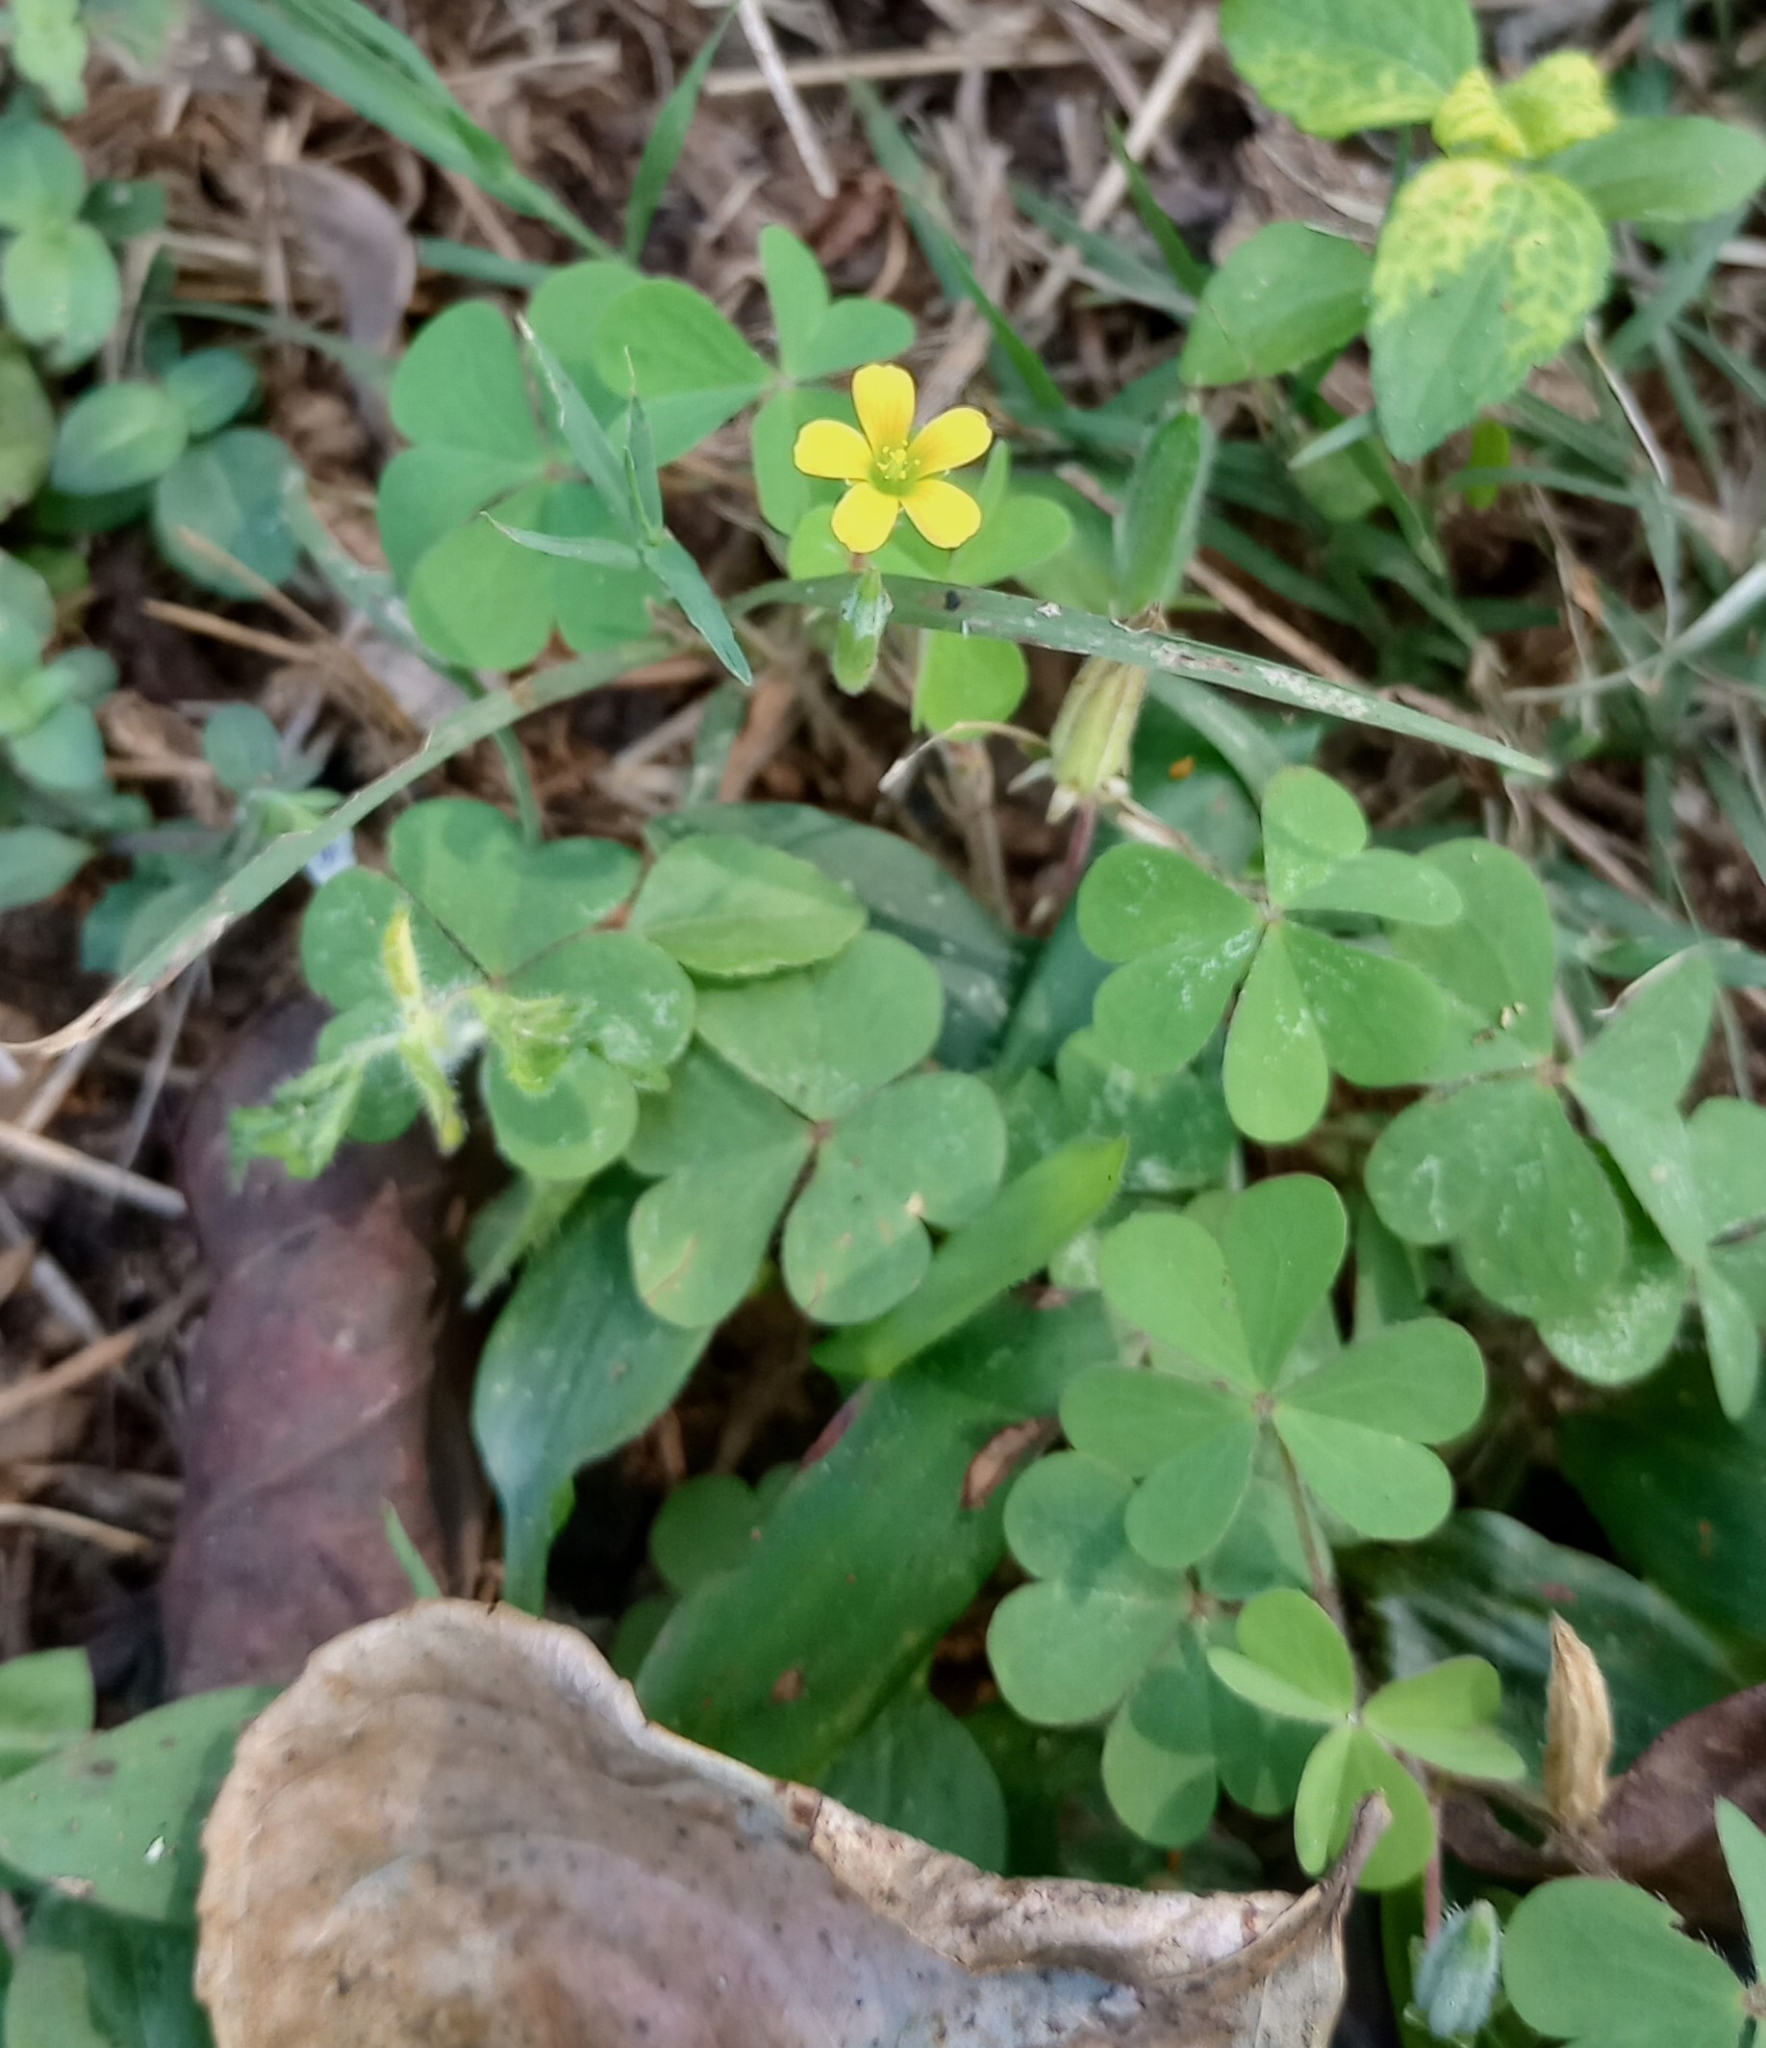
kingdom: Plantae
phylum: Tracheophyta
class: Magnoliopsida
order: Oxalidales
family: Oxalidaceae
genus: Oxalis
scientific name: Oxalis corniculata
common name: Procumbent yellow-sorrel
